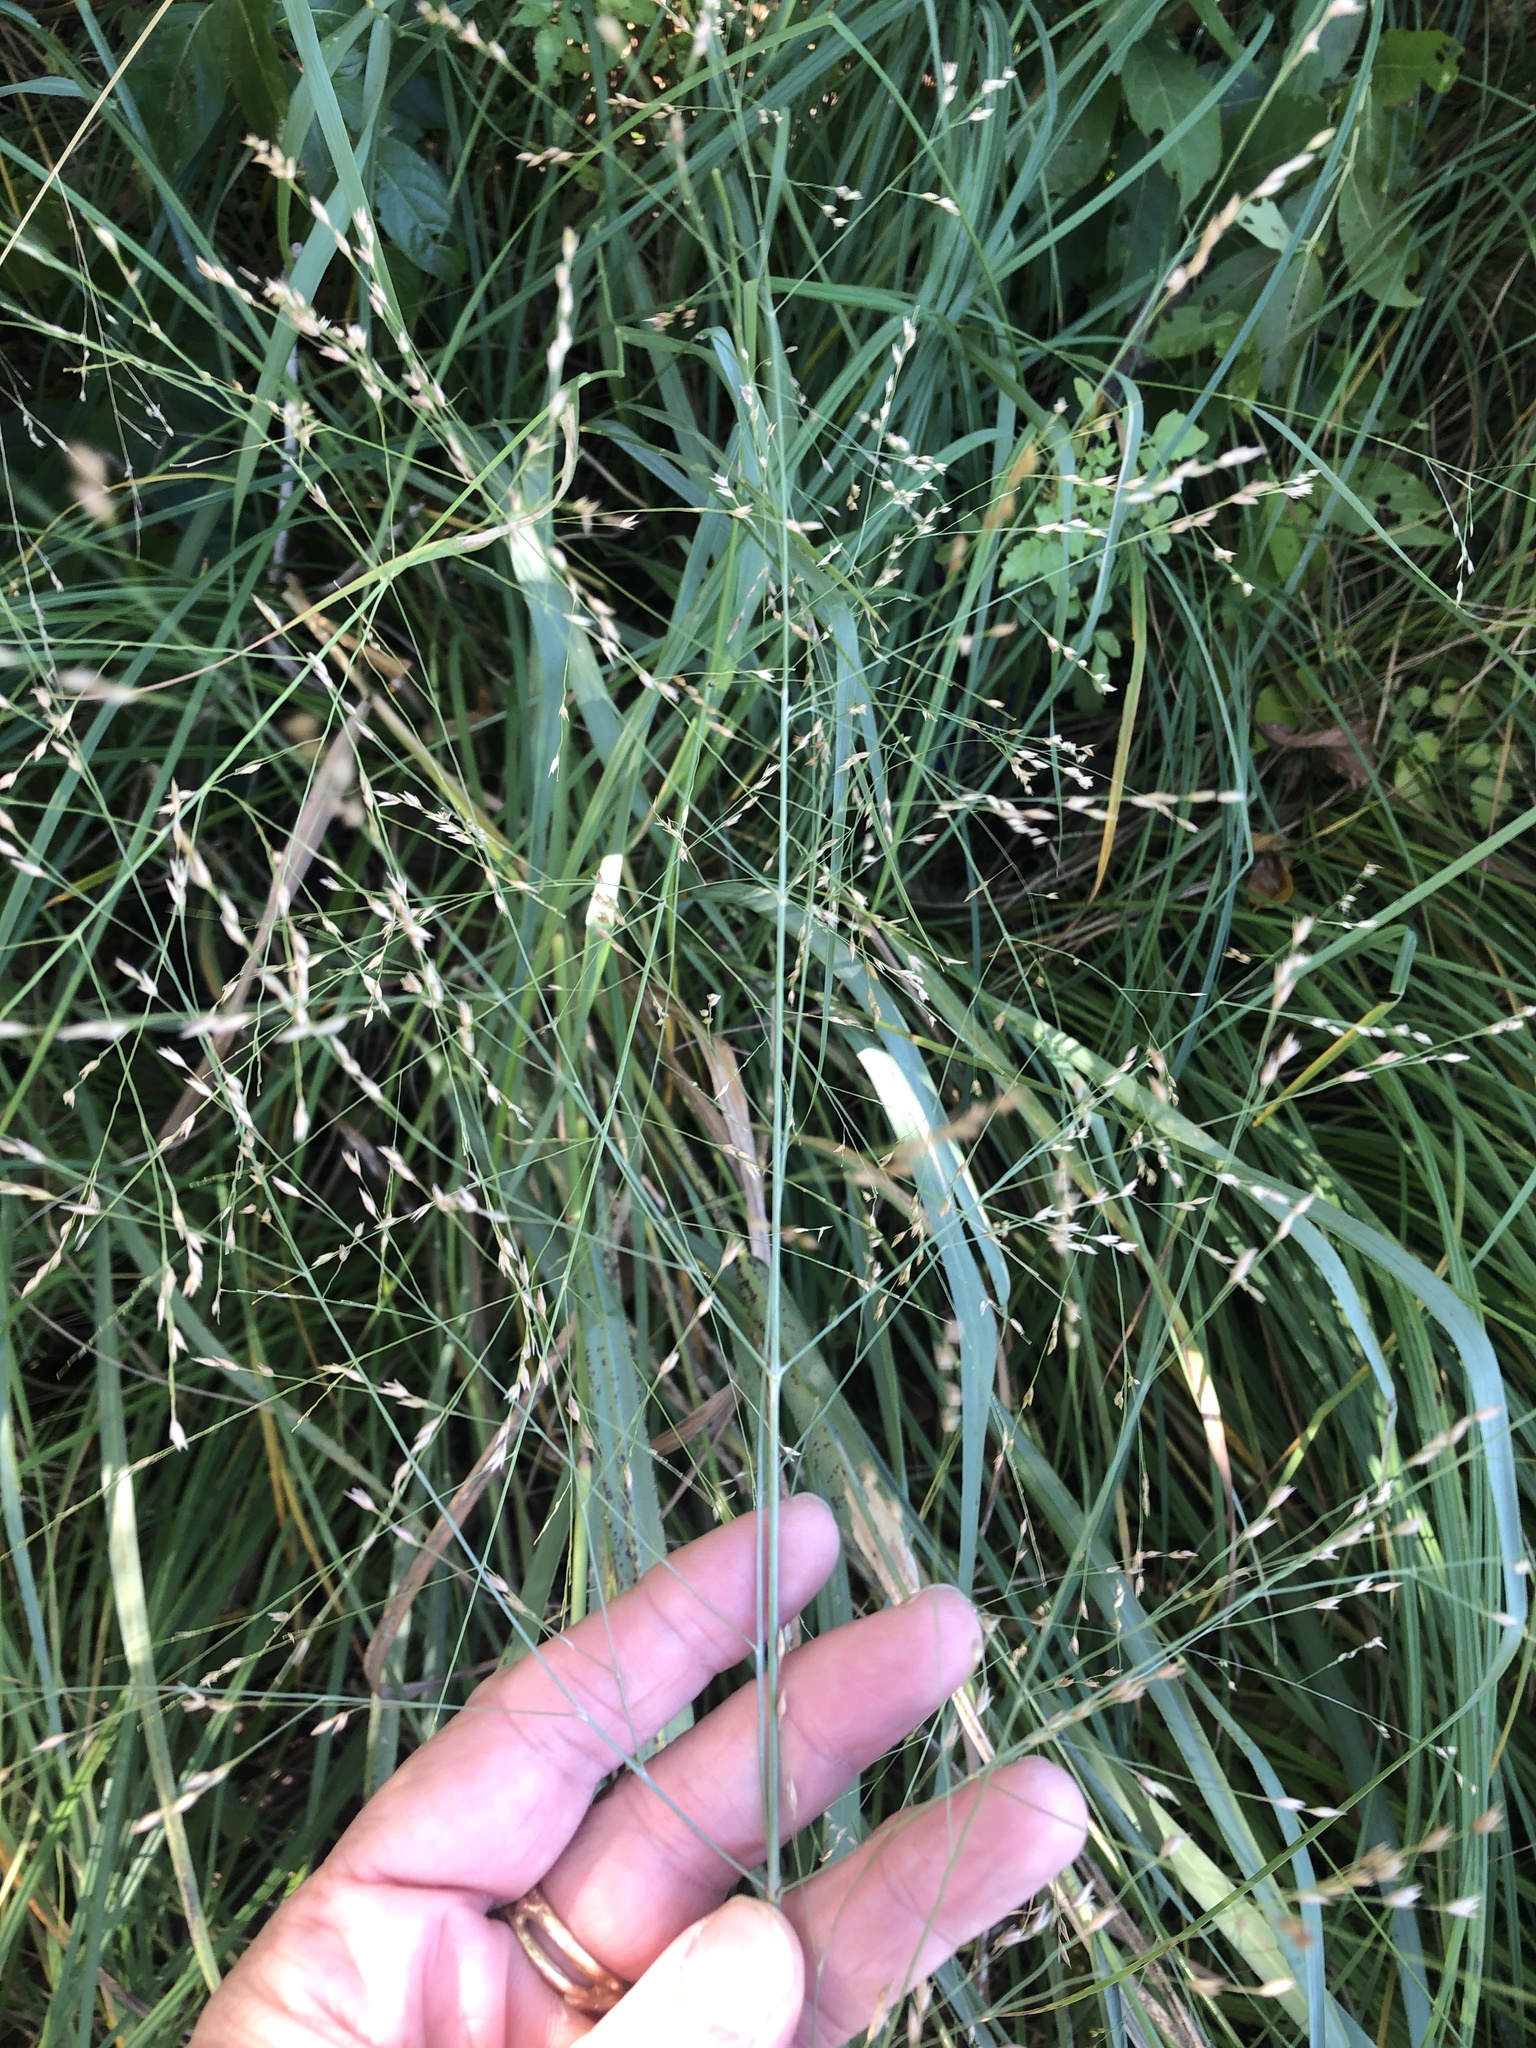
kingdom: Plantae
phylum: Tracheophyta
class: Liliopsida
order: Poales
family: Poaceae
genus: Panicum
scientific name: Panicum virgatum
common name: Switchgrass
